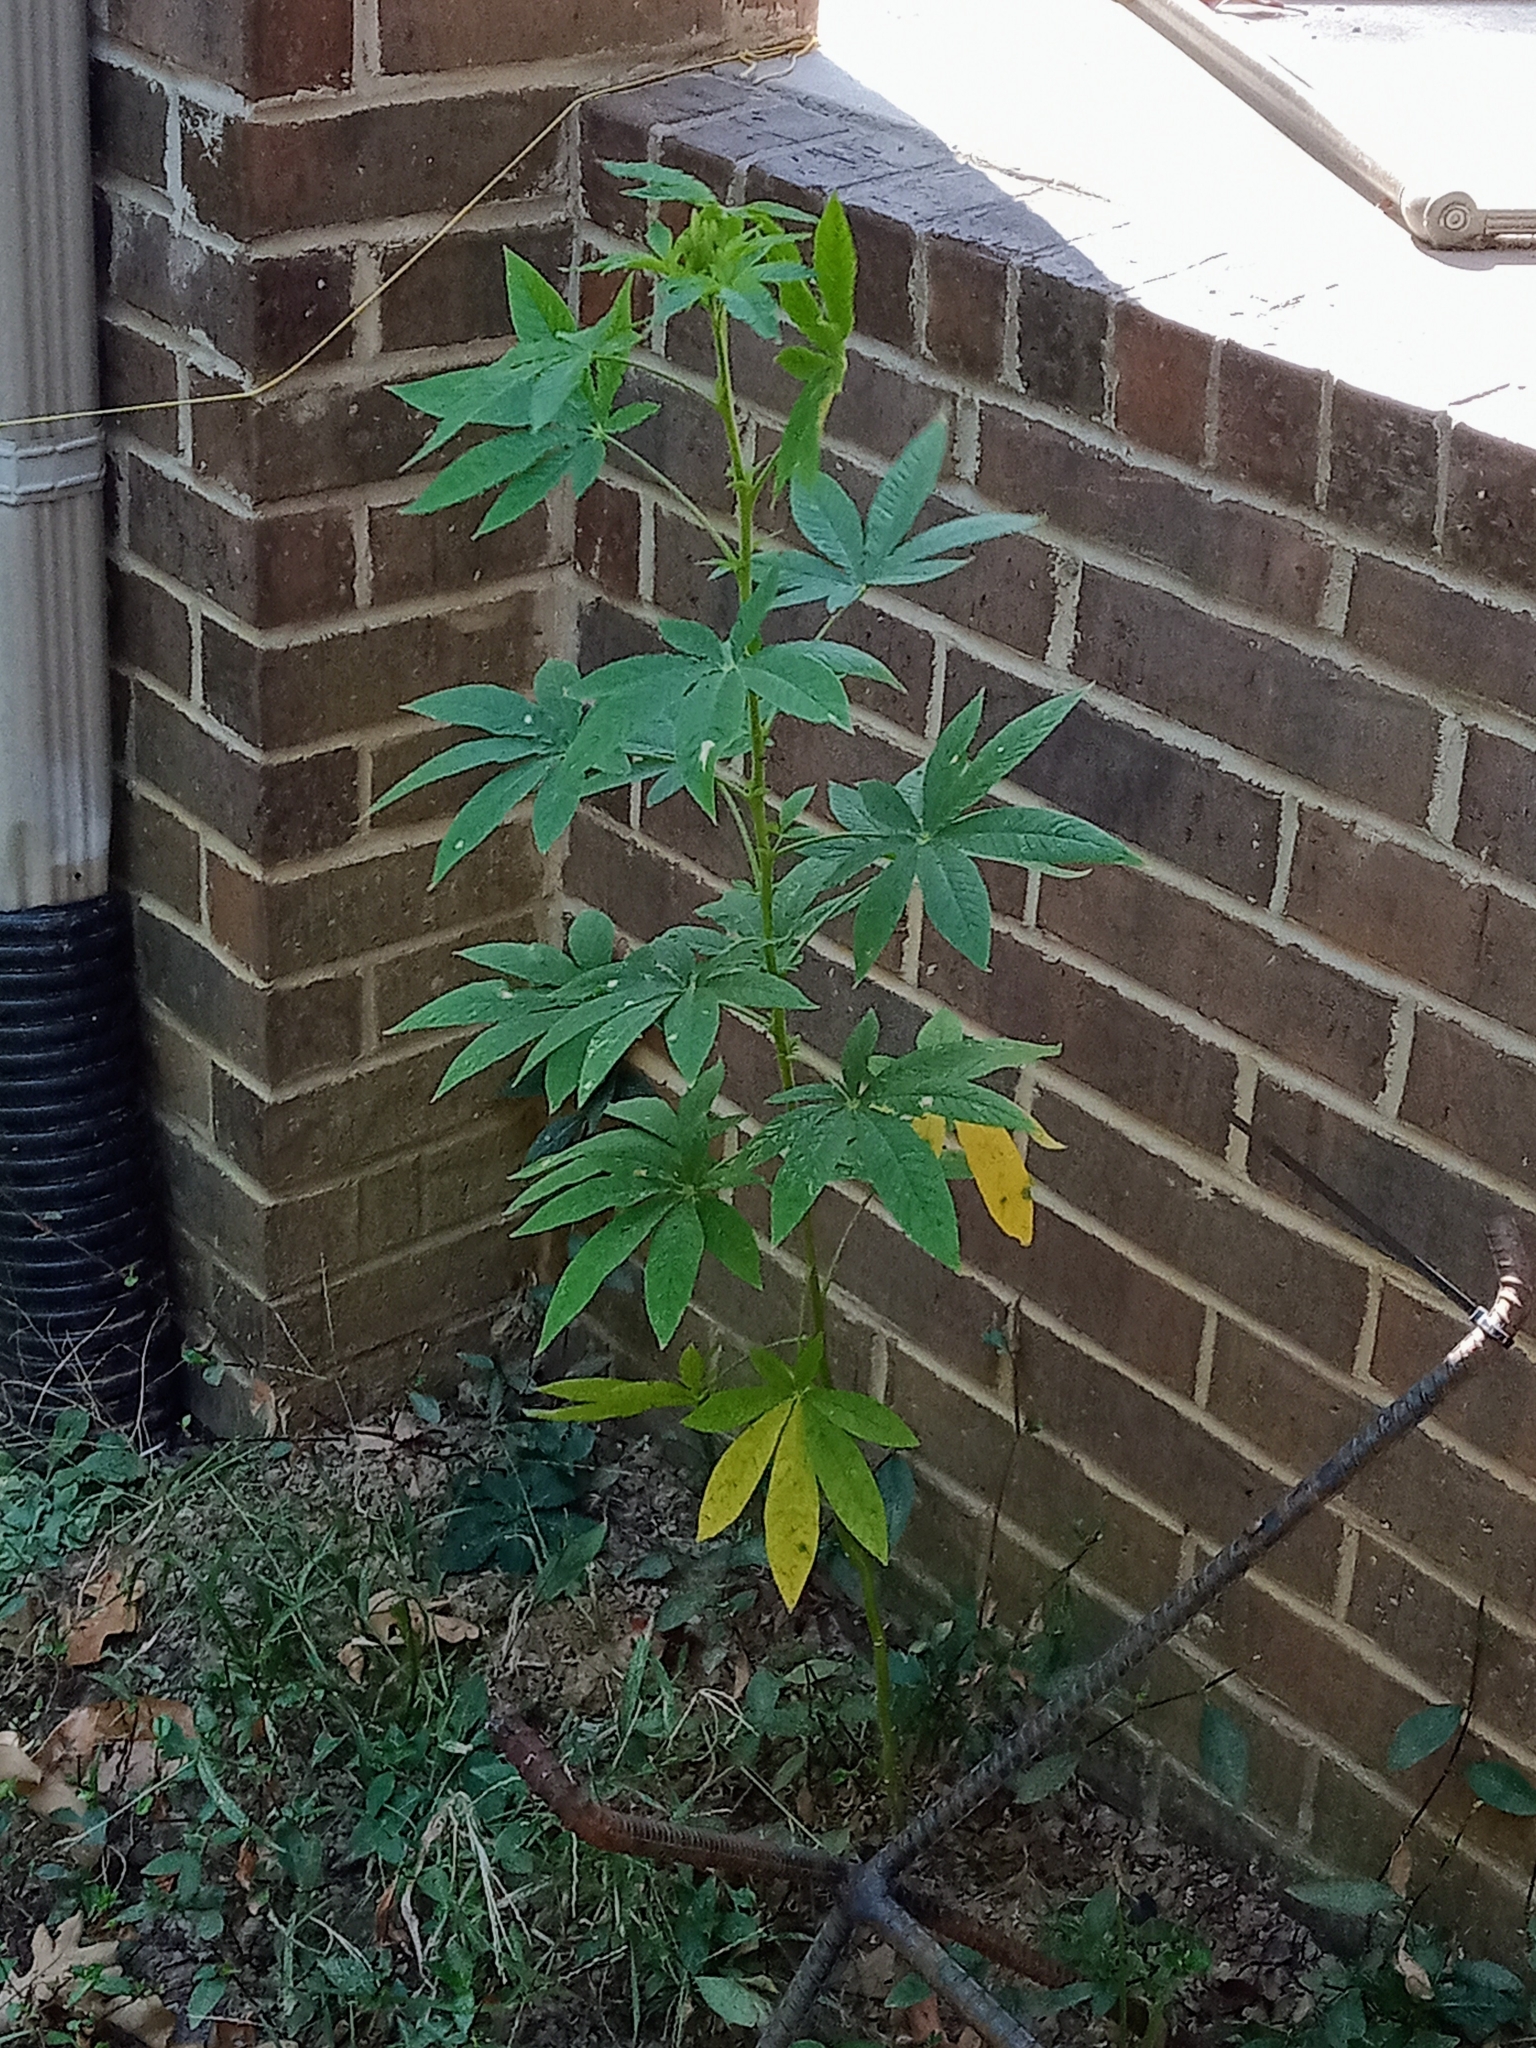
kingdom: Plantae
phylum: Tracheophyta
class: Magnoliopsida
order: Brassicales
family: Cleomaceae
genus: Tarenaya
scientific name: Tarenaya houtteana
